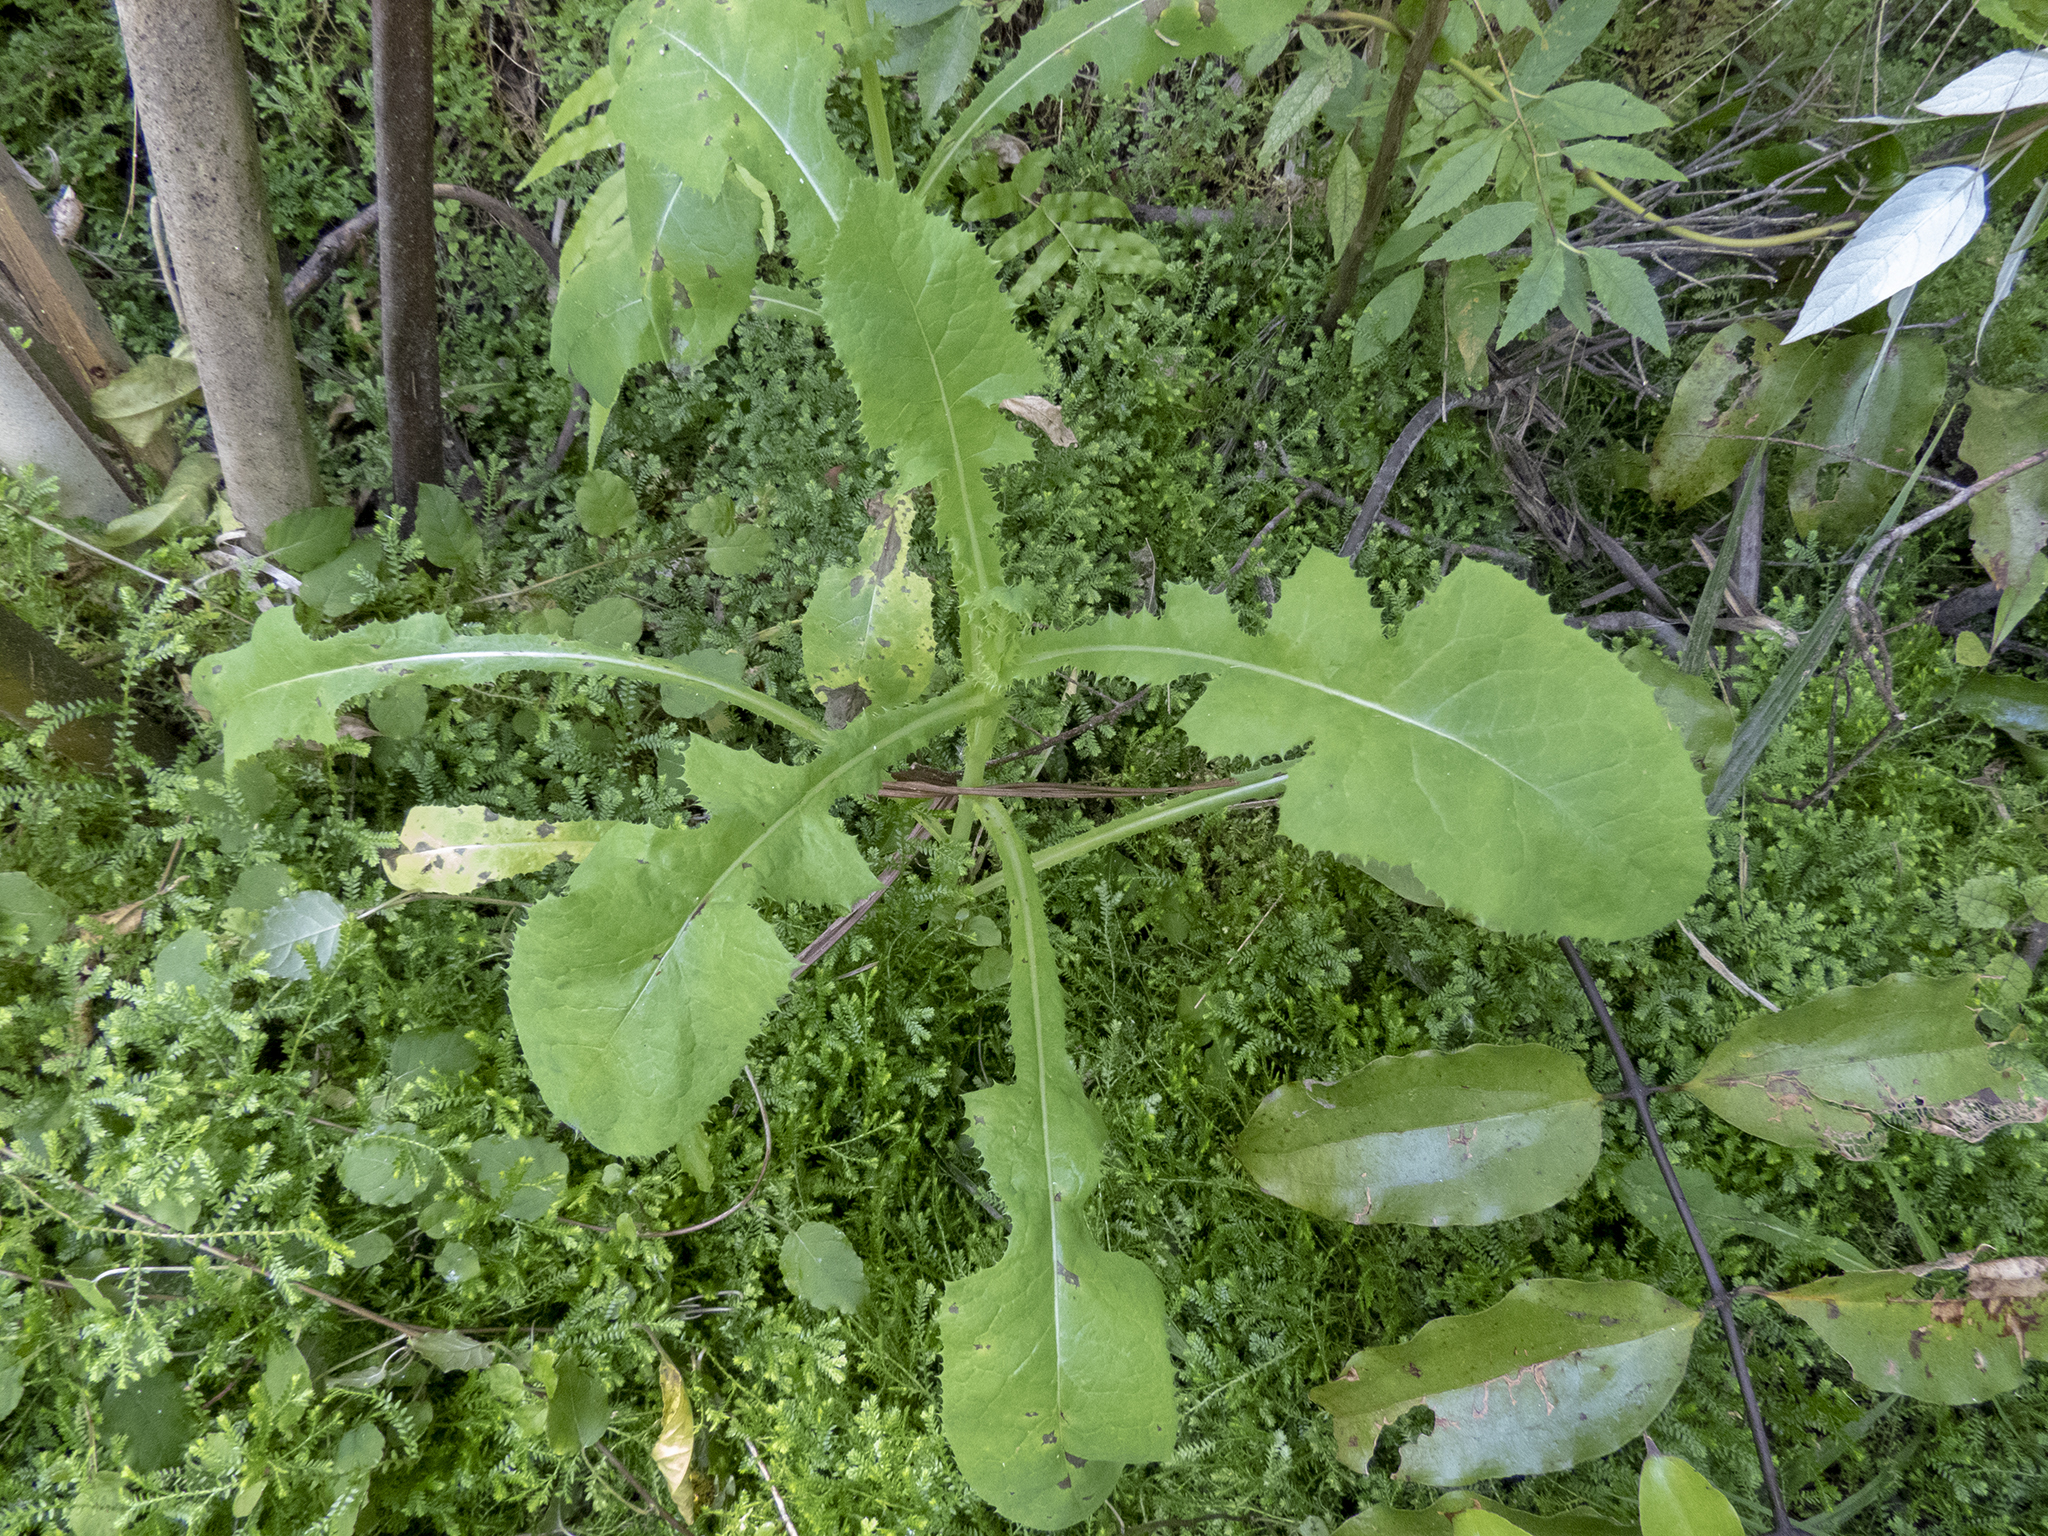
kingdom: Plantae
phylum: Tracheophyta
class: Magnoliopsida
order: Asterales
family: Asteraceae
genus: Sonchus
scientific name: Sonchus oleraceus
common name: Common sowthistle
